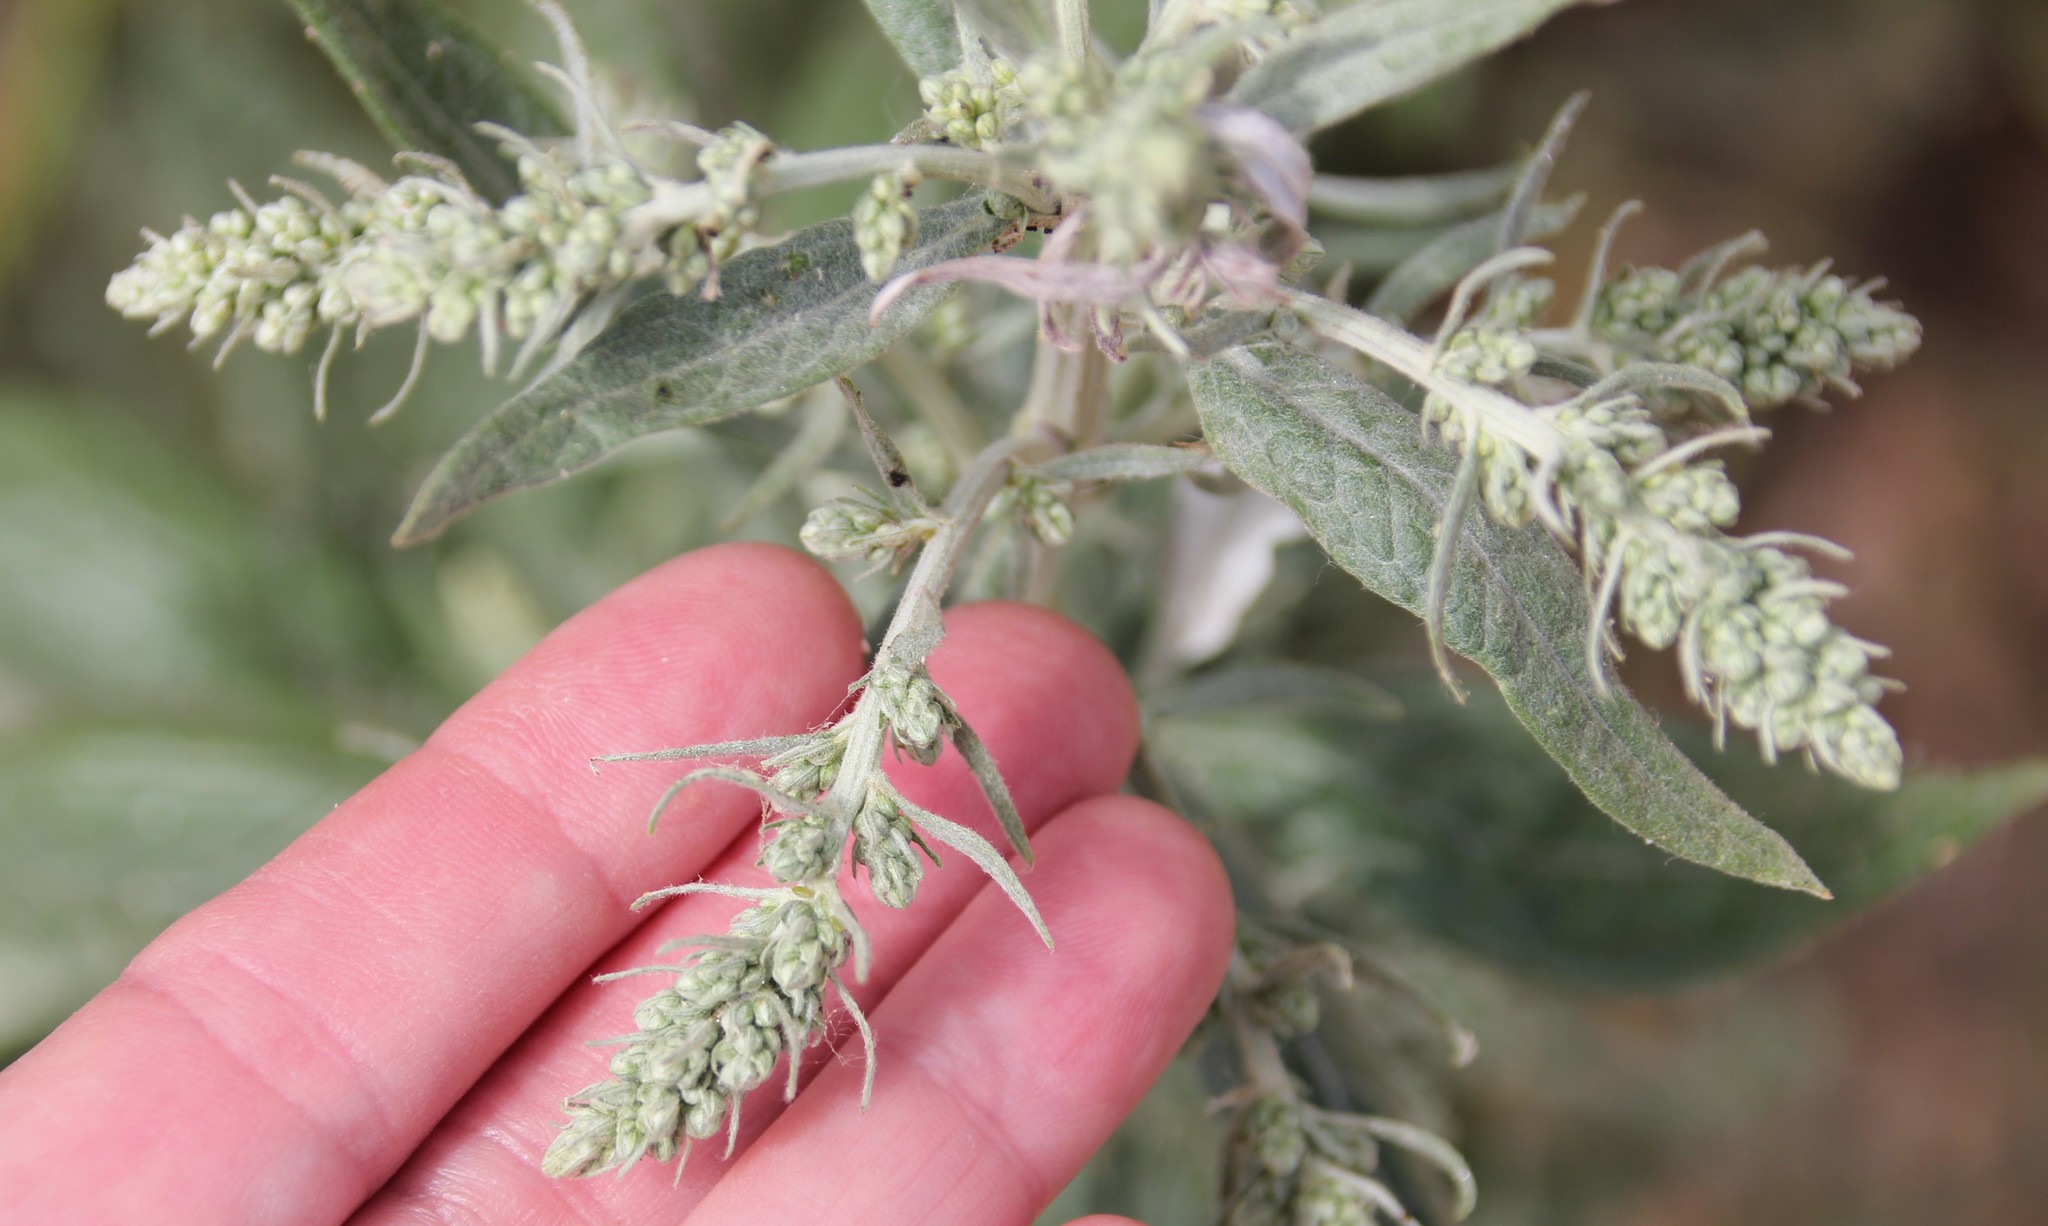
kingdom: Plantae
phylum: Tracheophyta
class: Magnoliopsida
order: Asterales
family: Asteraceae
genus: Artemisia
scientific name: Artemisia douglasiana
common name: Northwest mugwort
